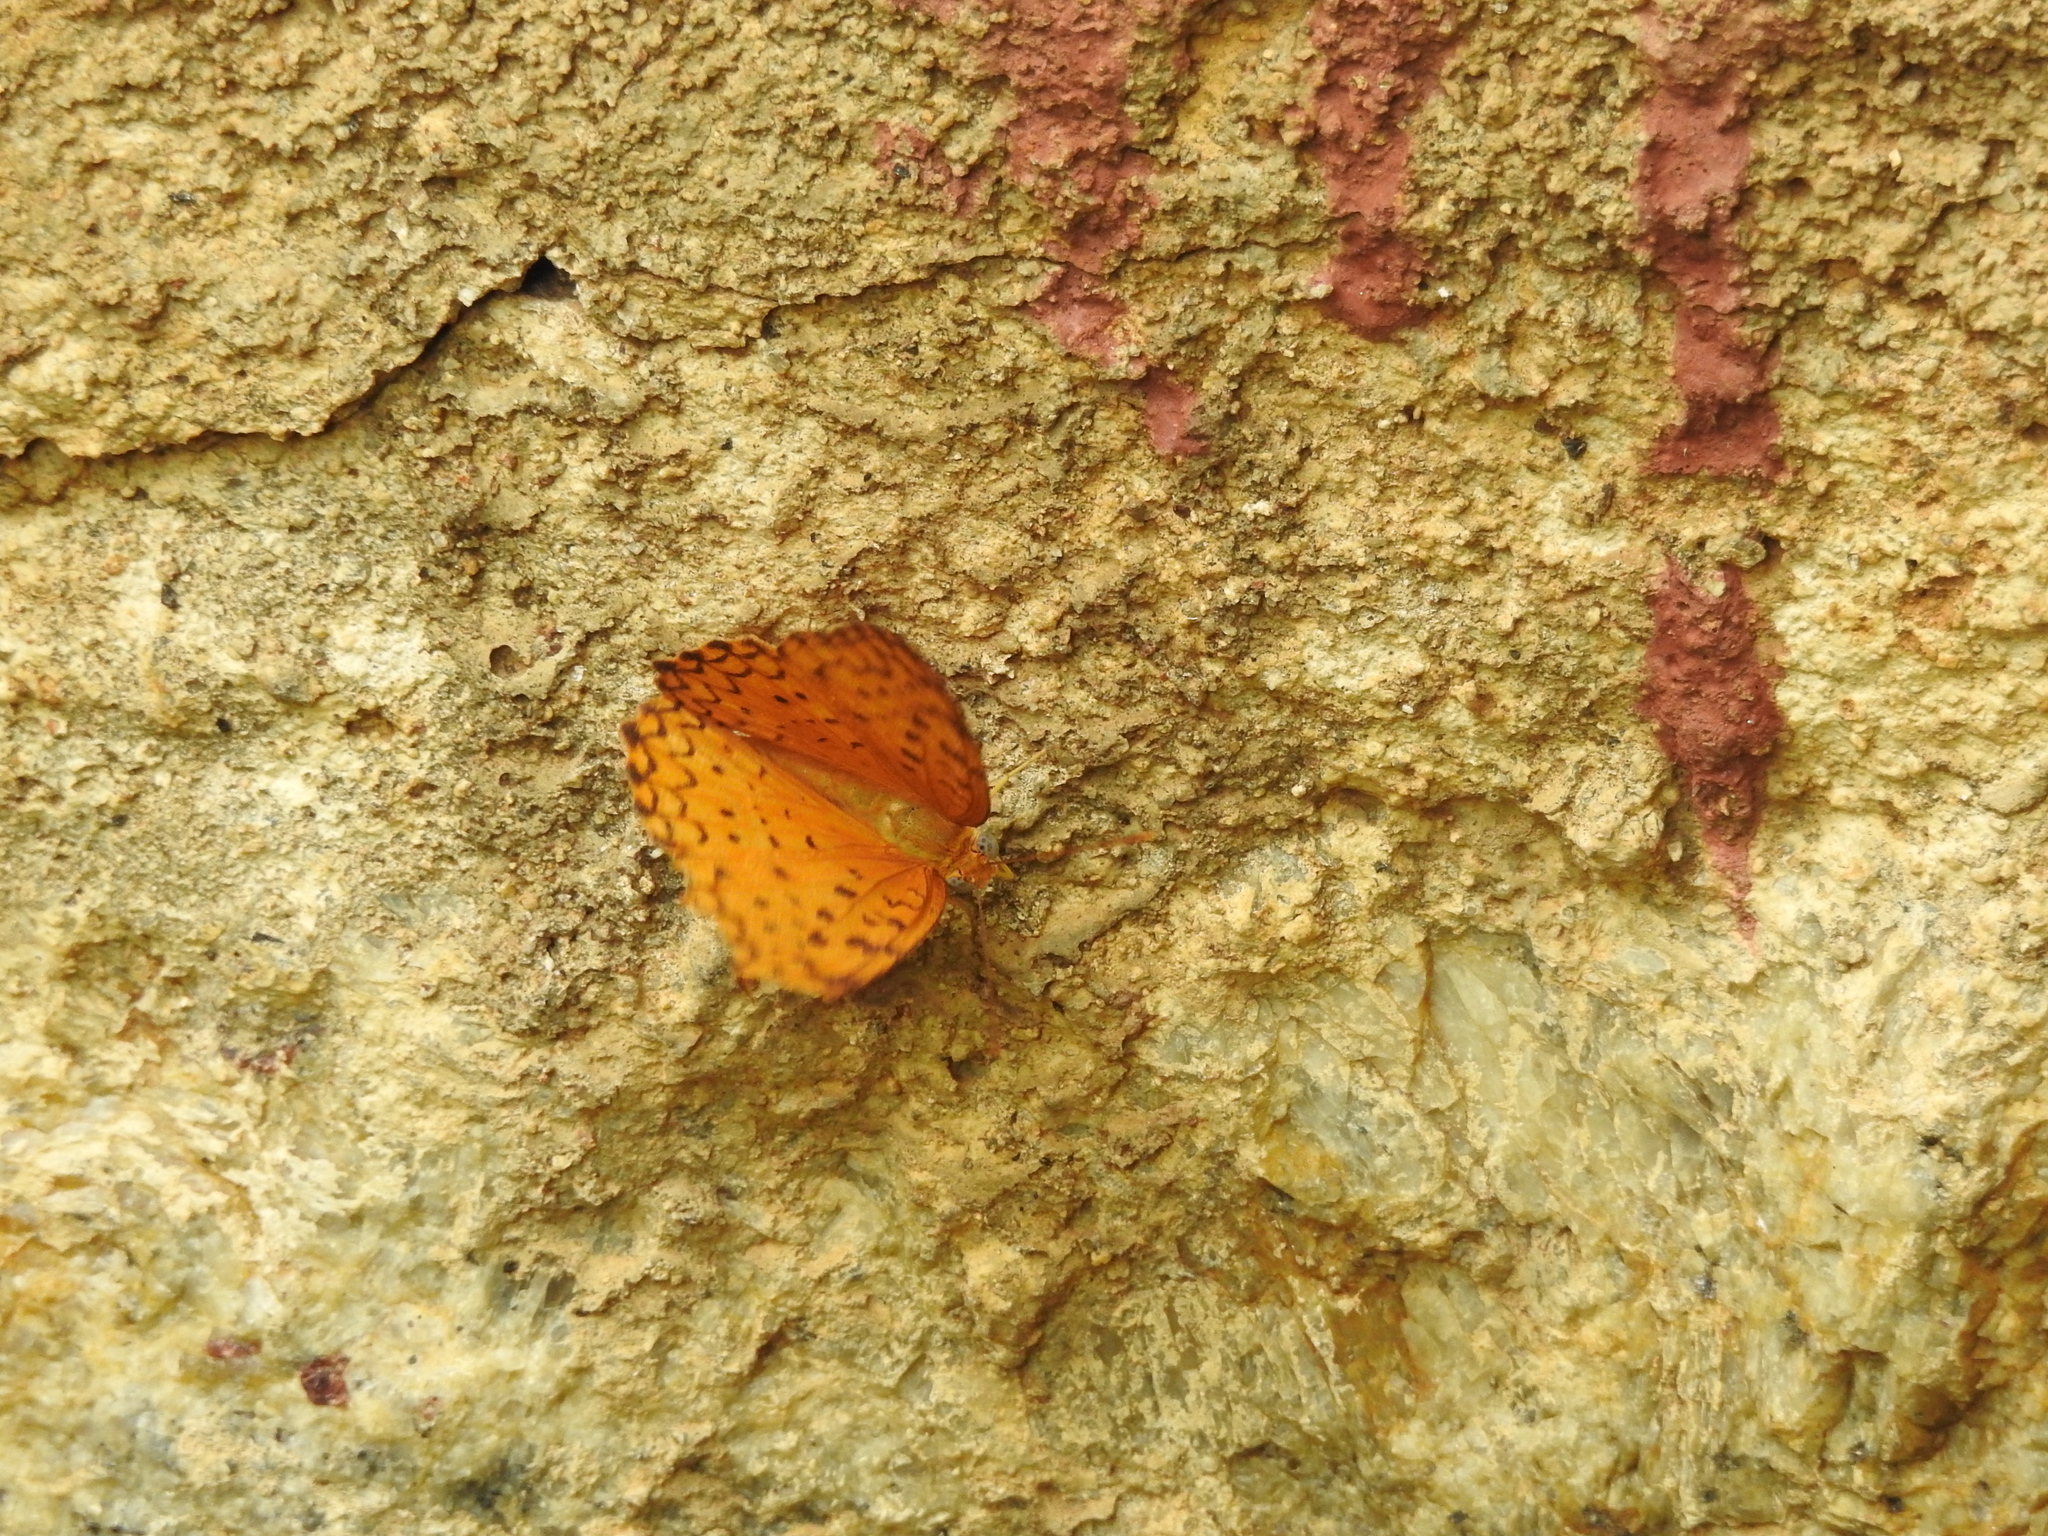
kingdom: Animalia
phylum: Arthropoda
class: Insecta
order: Lepidoptera
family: Nymphalidae
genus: Phalanta
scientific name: Phalanta phalantha
